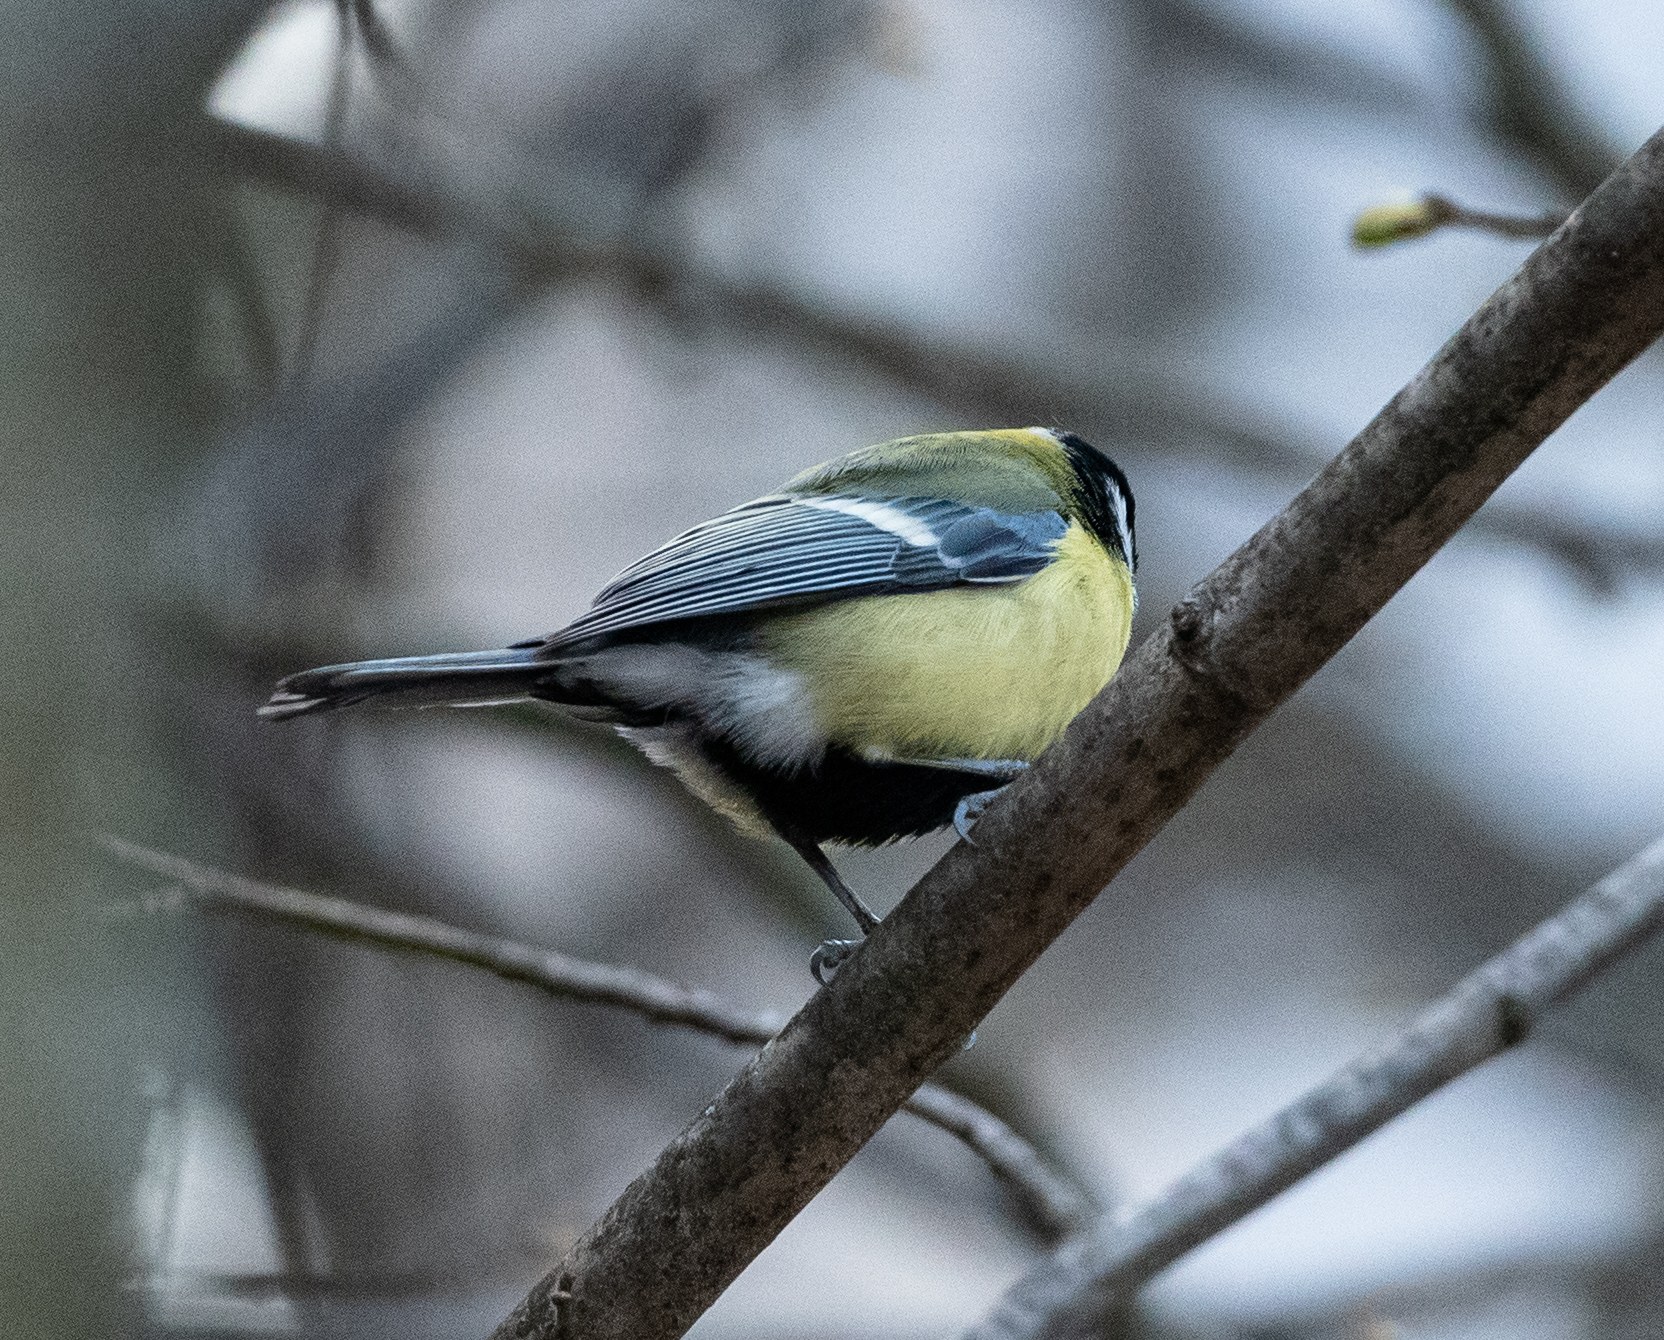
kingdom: Animalia
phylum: Chordata
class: Aves
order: Passeriformes
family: Paridae
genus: Parus
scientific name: Parus major
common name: Great tit
